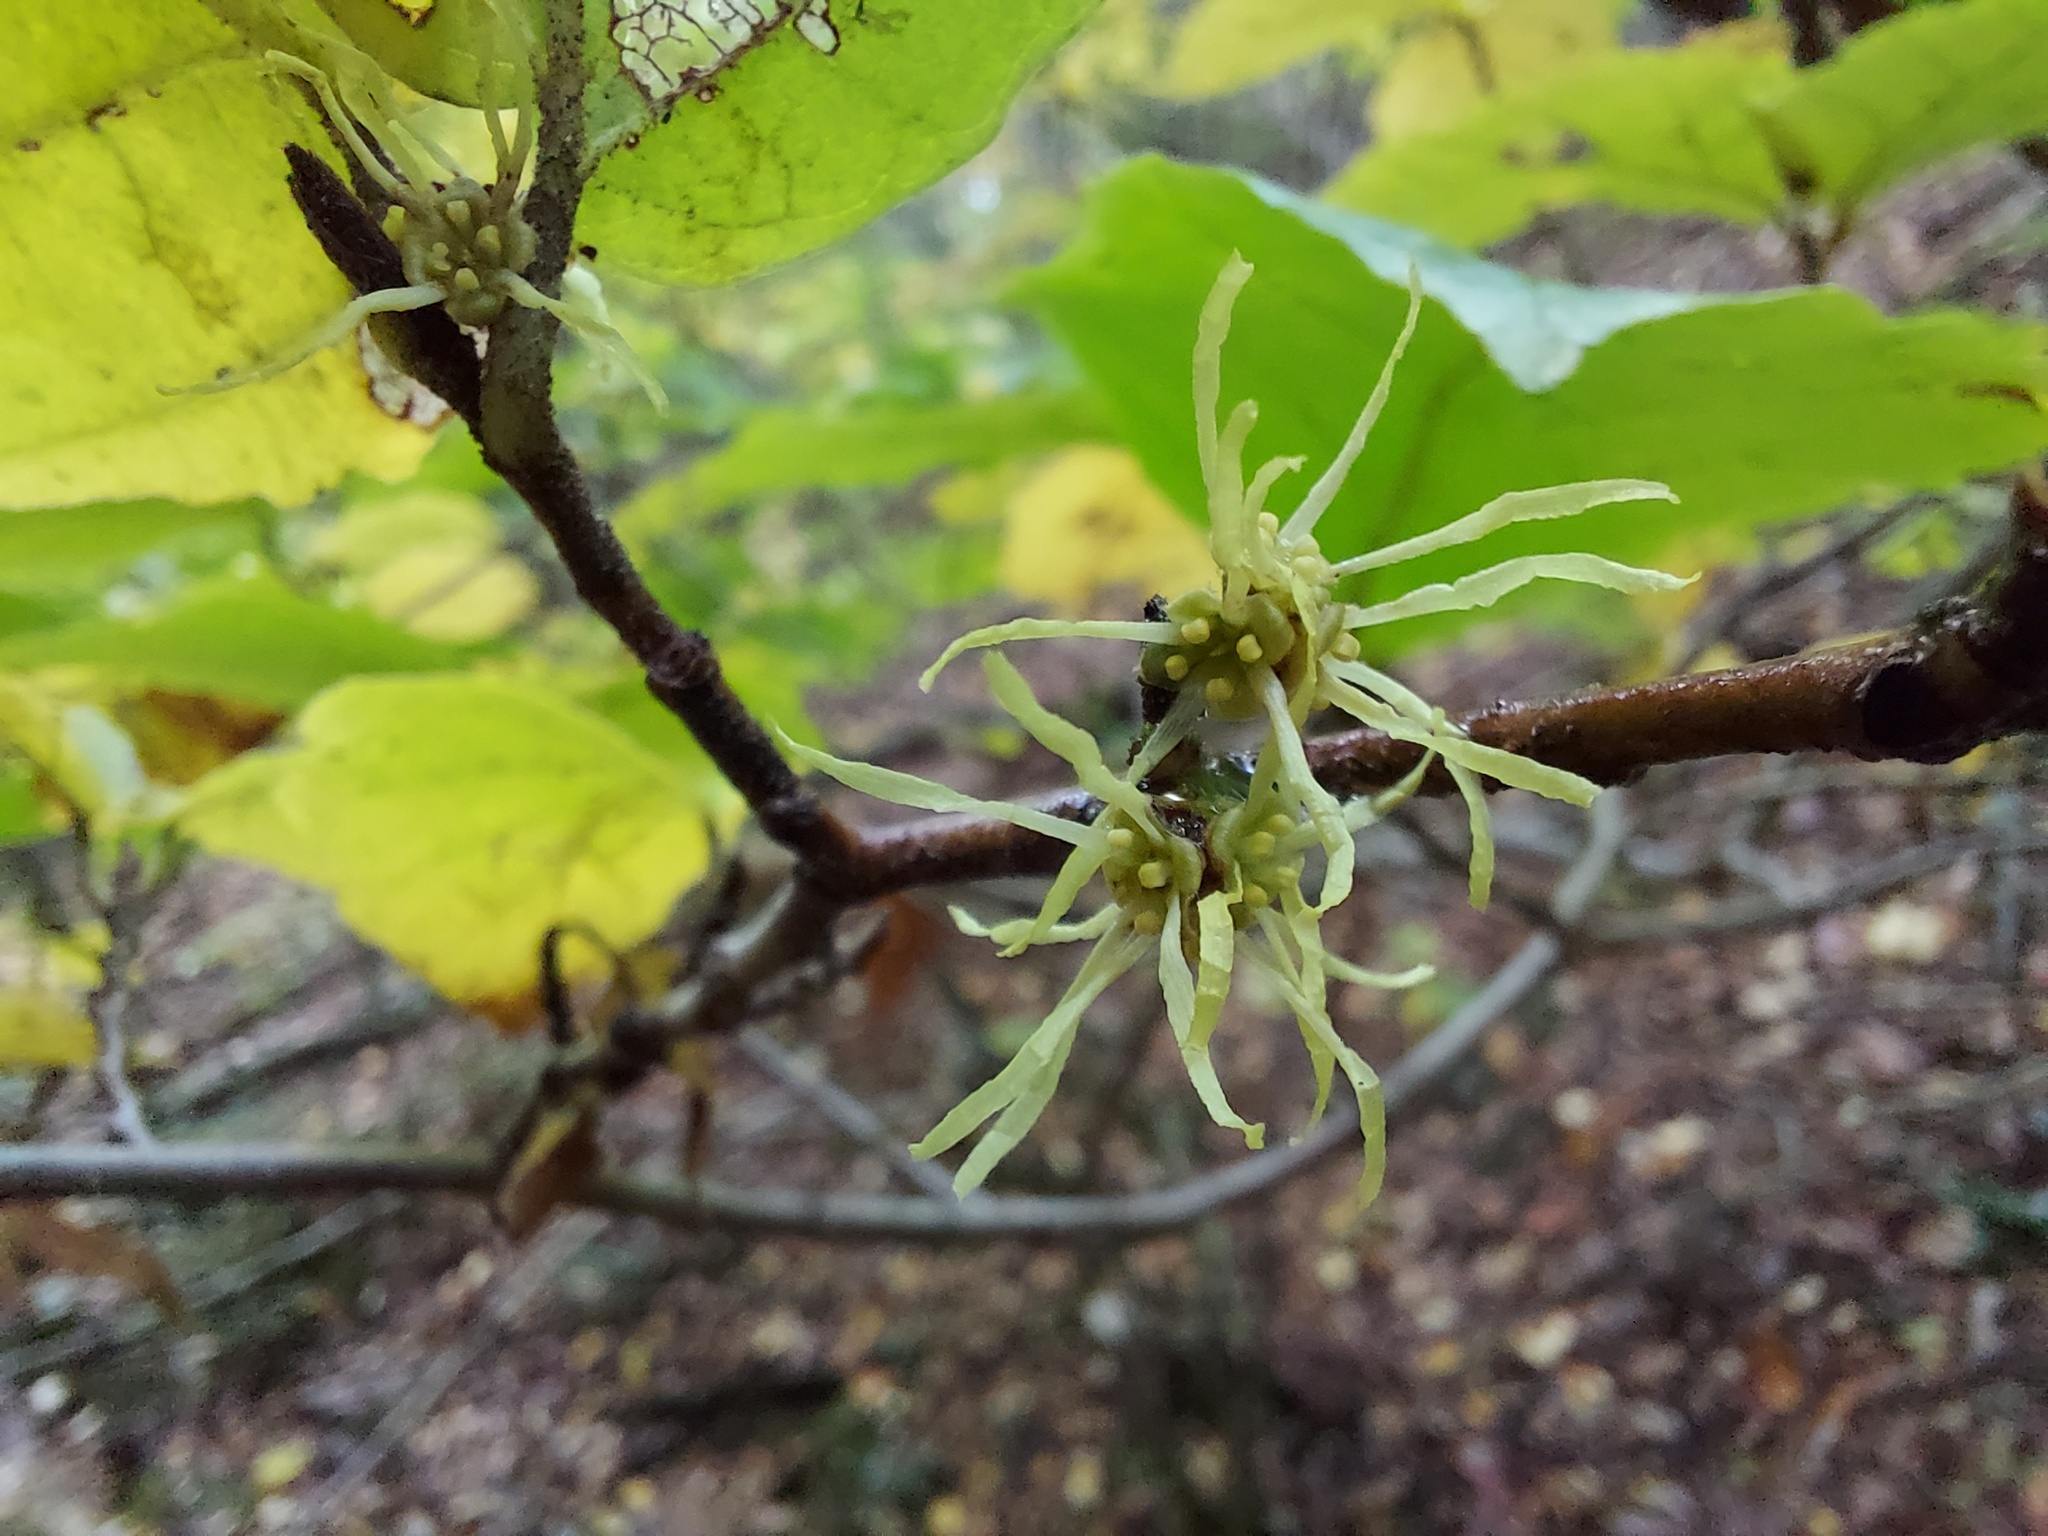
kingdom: Plantae
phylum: Tracheophyta
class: Magnoliopsida
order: Saxifragales
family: Hamamelidaceae
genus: Hamamelis
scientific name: Hamamelis virginiana
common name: Witch-hazel
